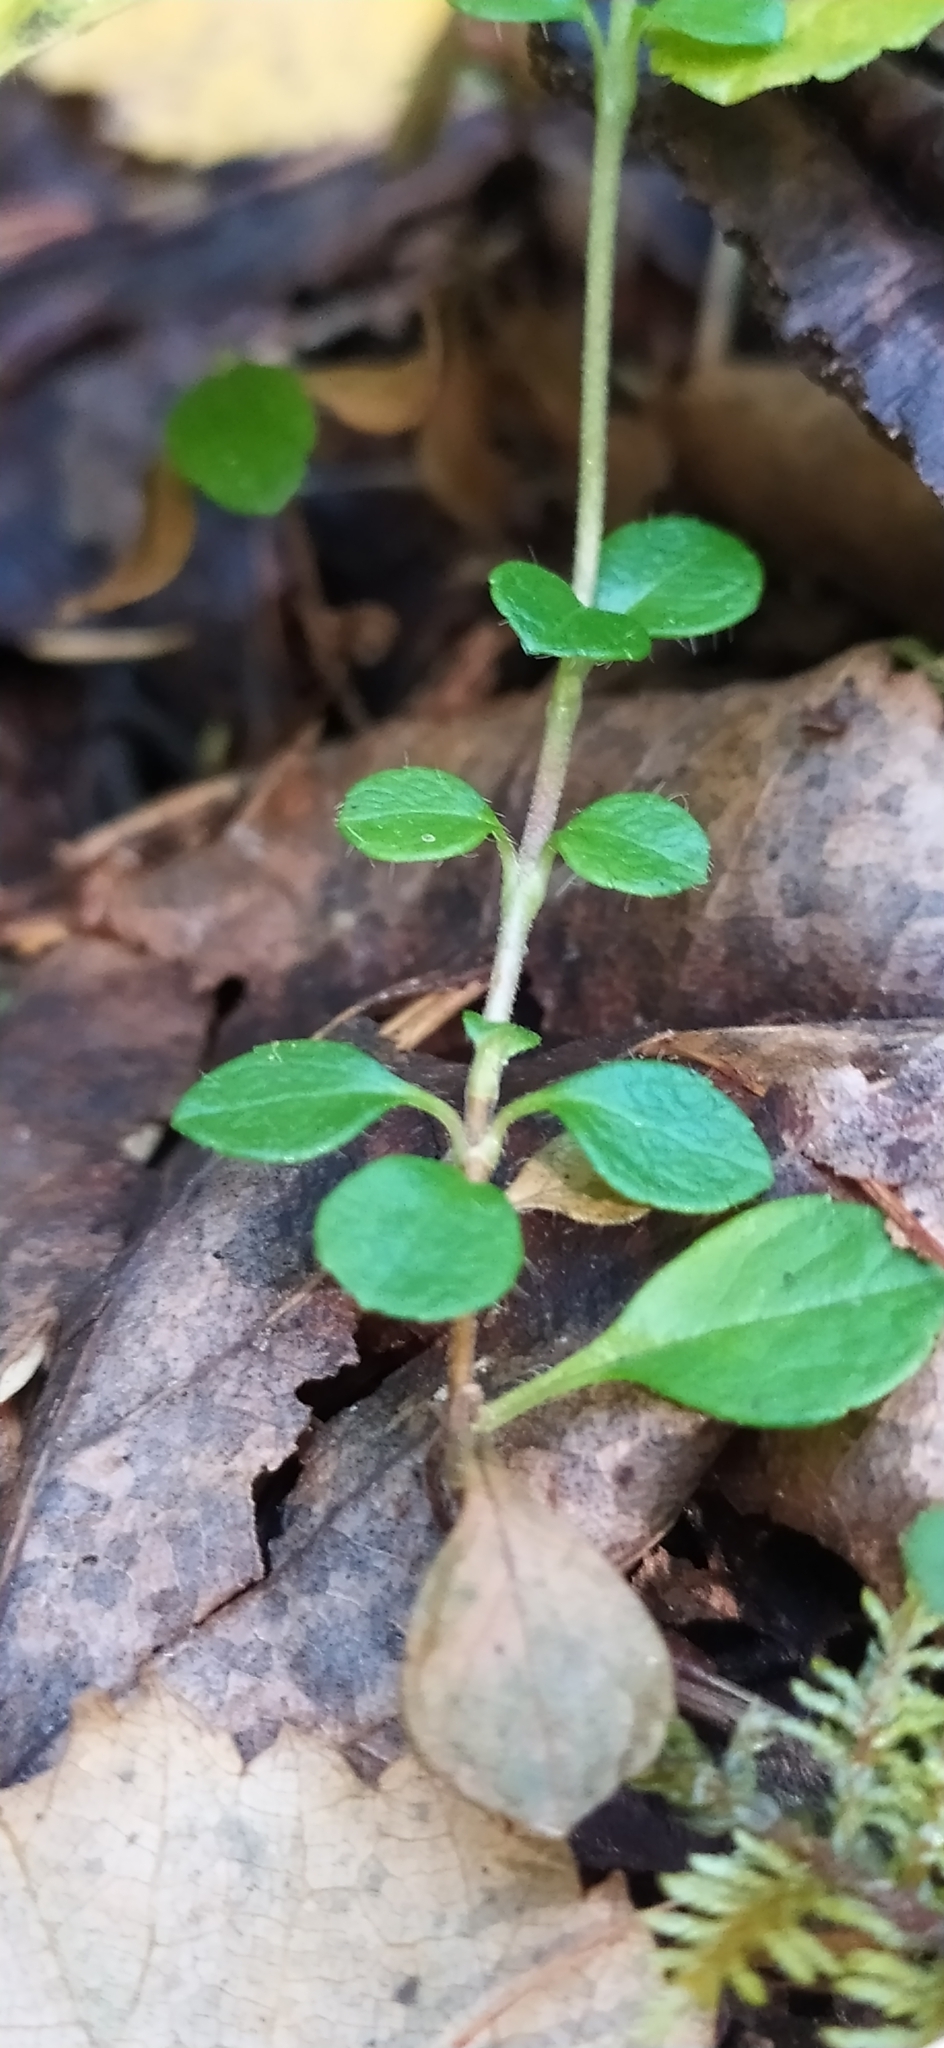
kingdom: Plantae
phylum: Tracheophyta
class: Magnoliopsida
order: Dipsacales
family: Caprifoliaceae
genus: Linnaea
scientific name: Linnaea borealis
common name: Twinflower
